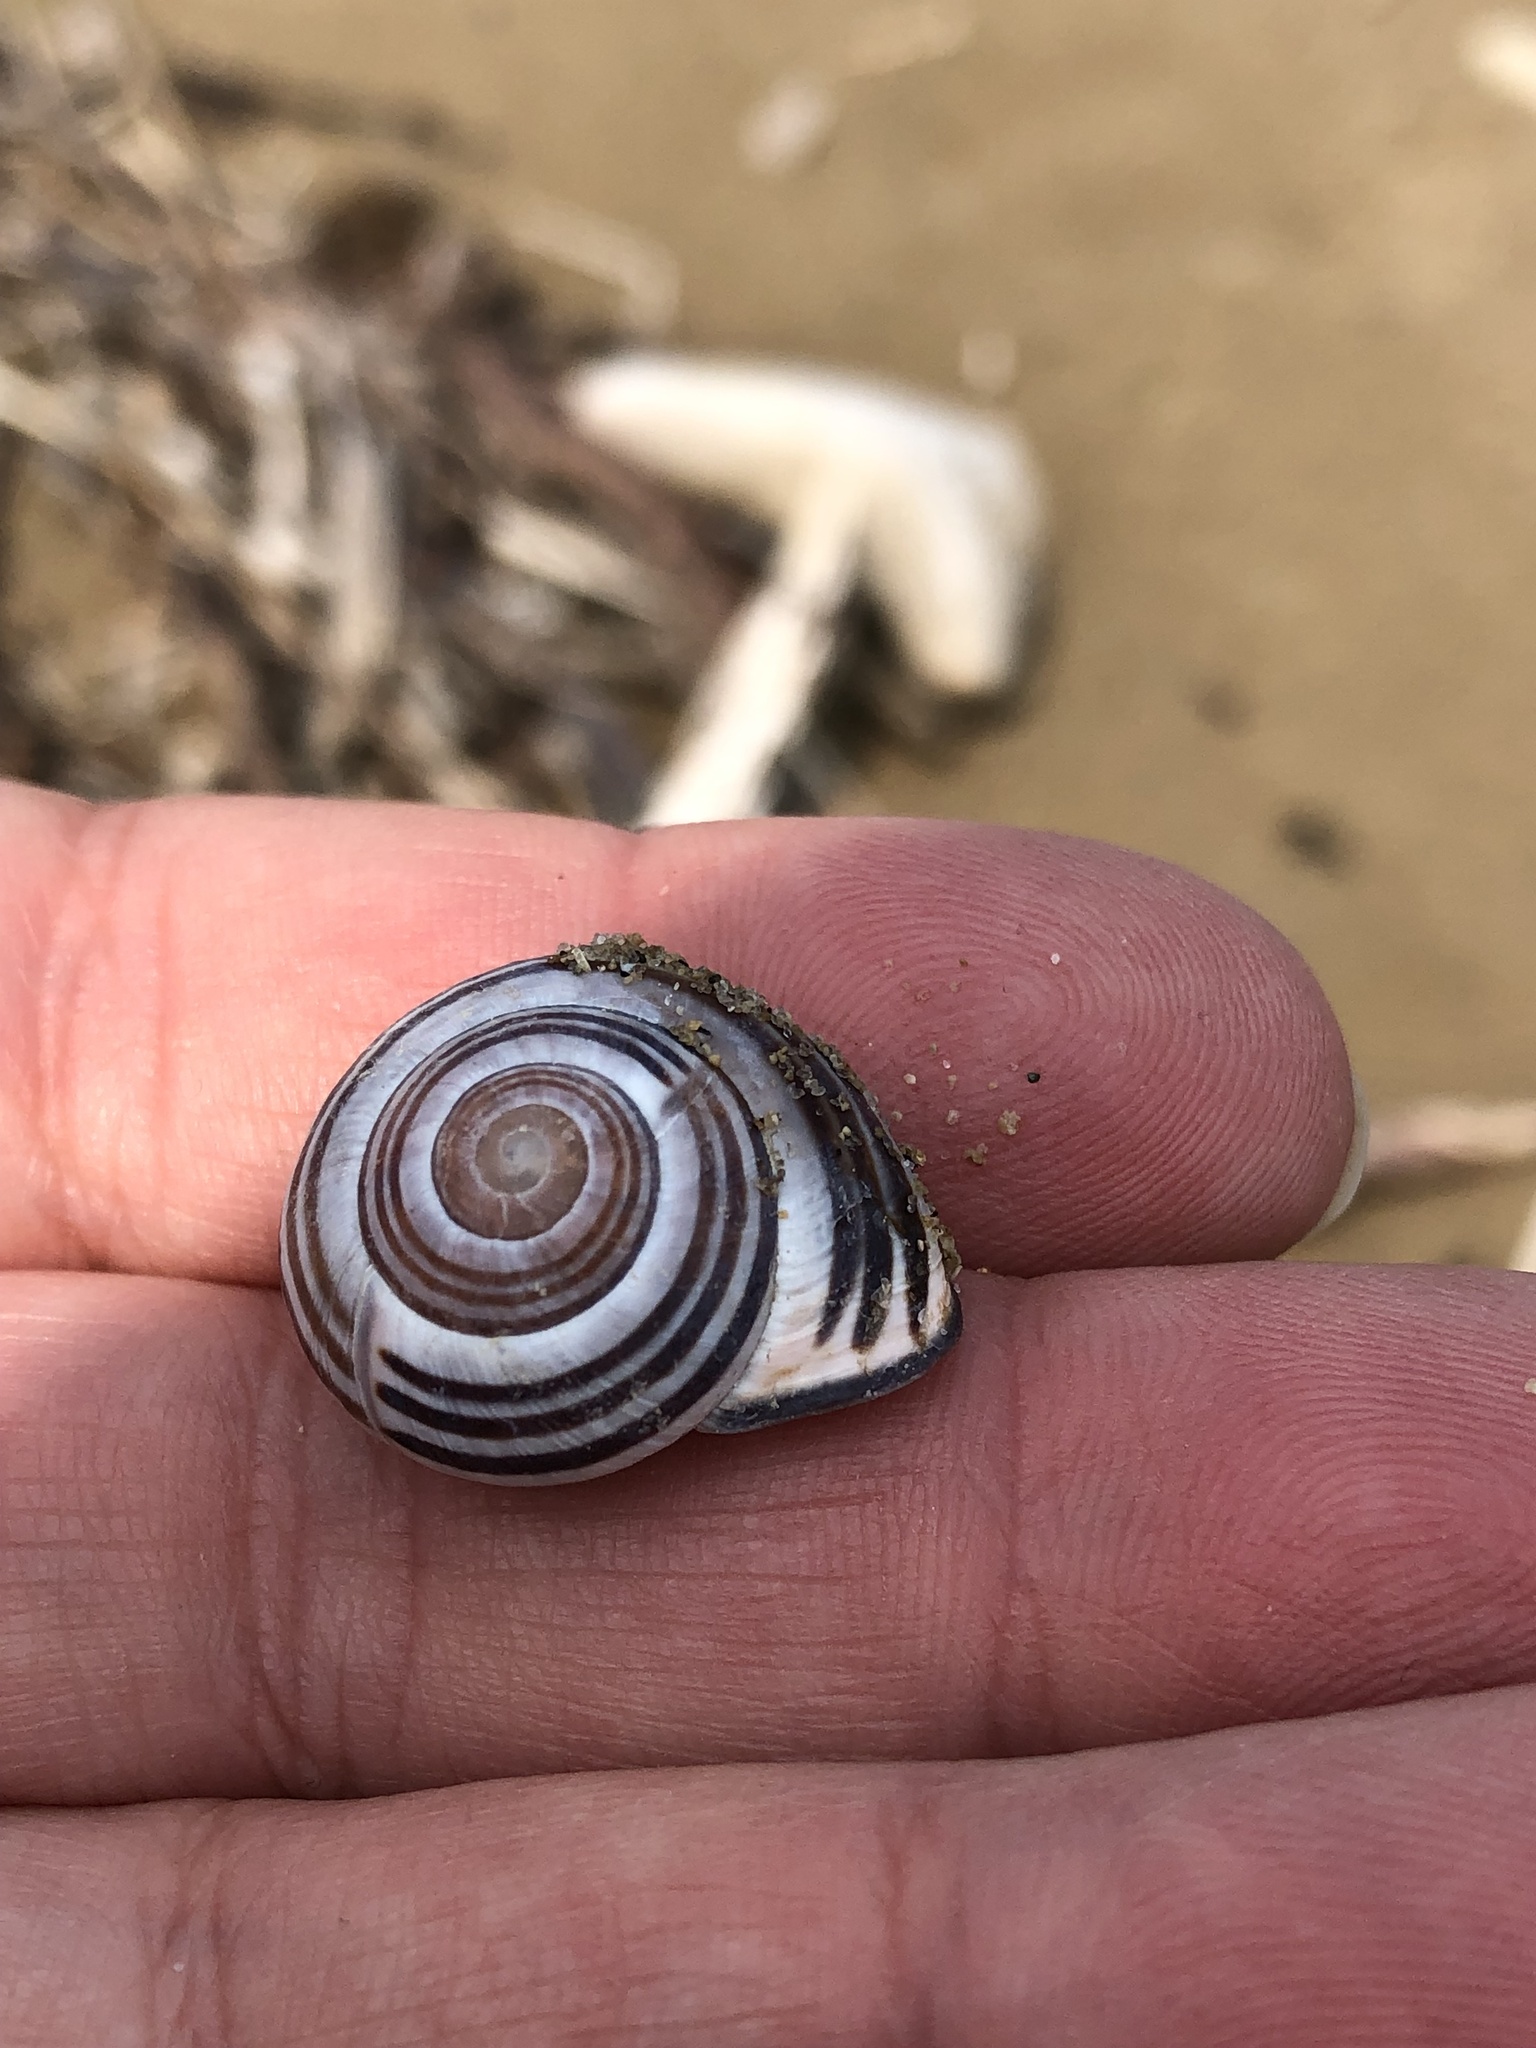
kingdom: Animalia
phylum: Mollusca
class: Gastropoda
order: Stylommatophora
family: Helicidae
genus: Cepaea
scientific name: Cepaea nemoralis
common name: Grovesnail
